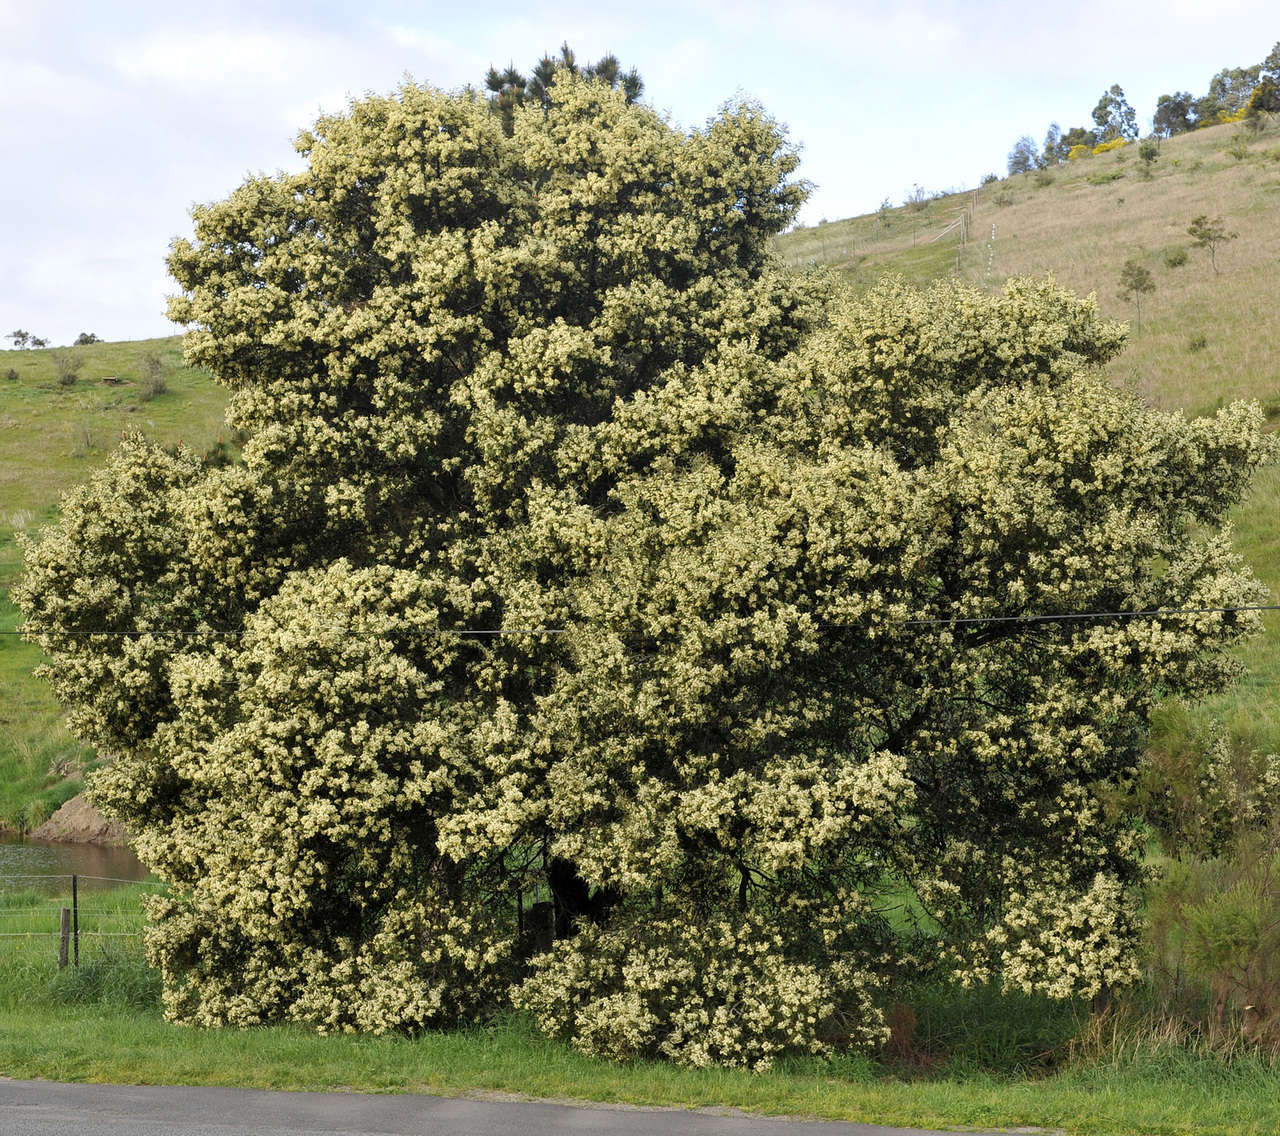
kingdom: Plantae
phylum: Tracheophyta
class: Magnoliopsida
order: Fabales
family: Fabaceae
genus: Acacia
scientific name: Acacia melanoxylon
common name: Blackwood
